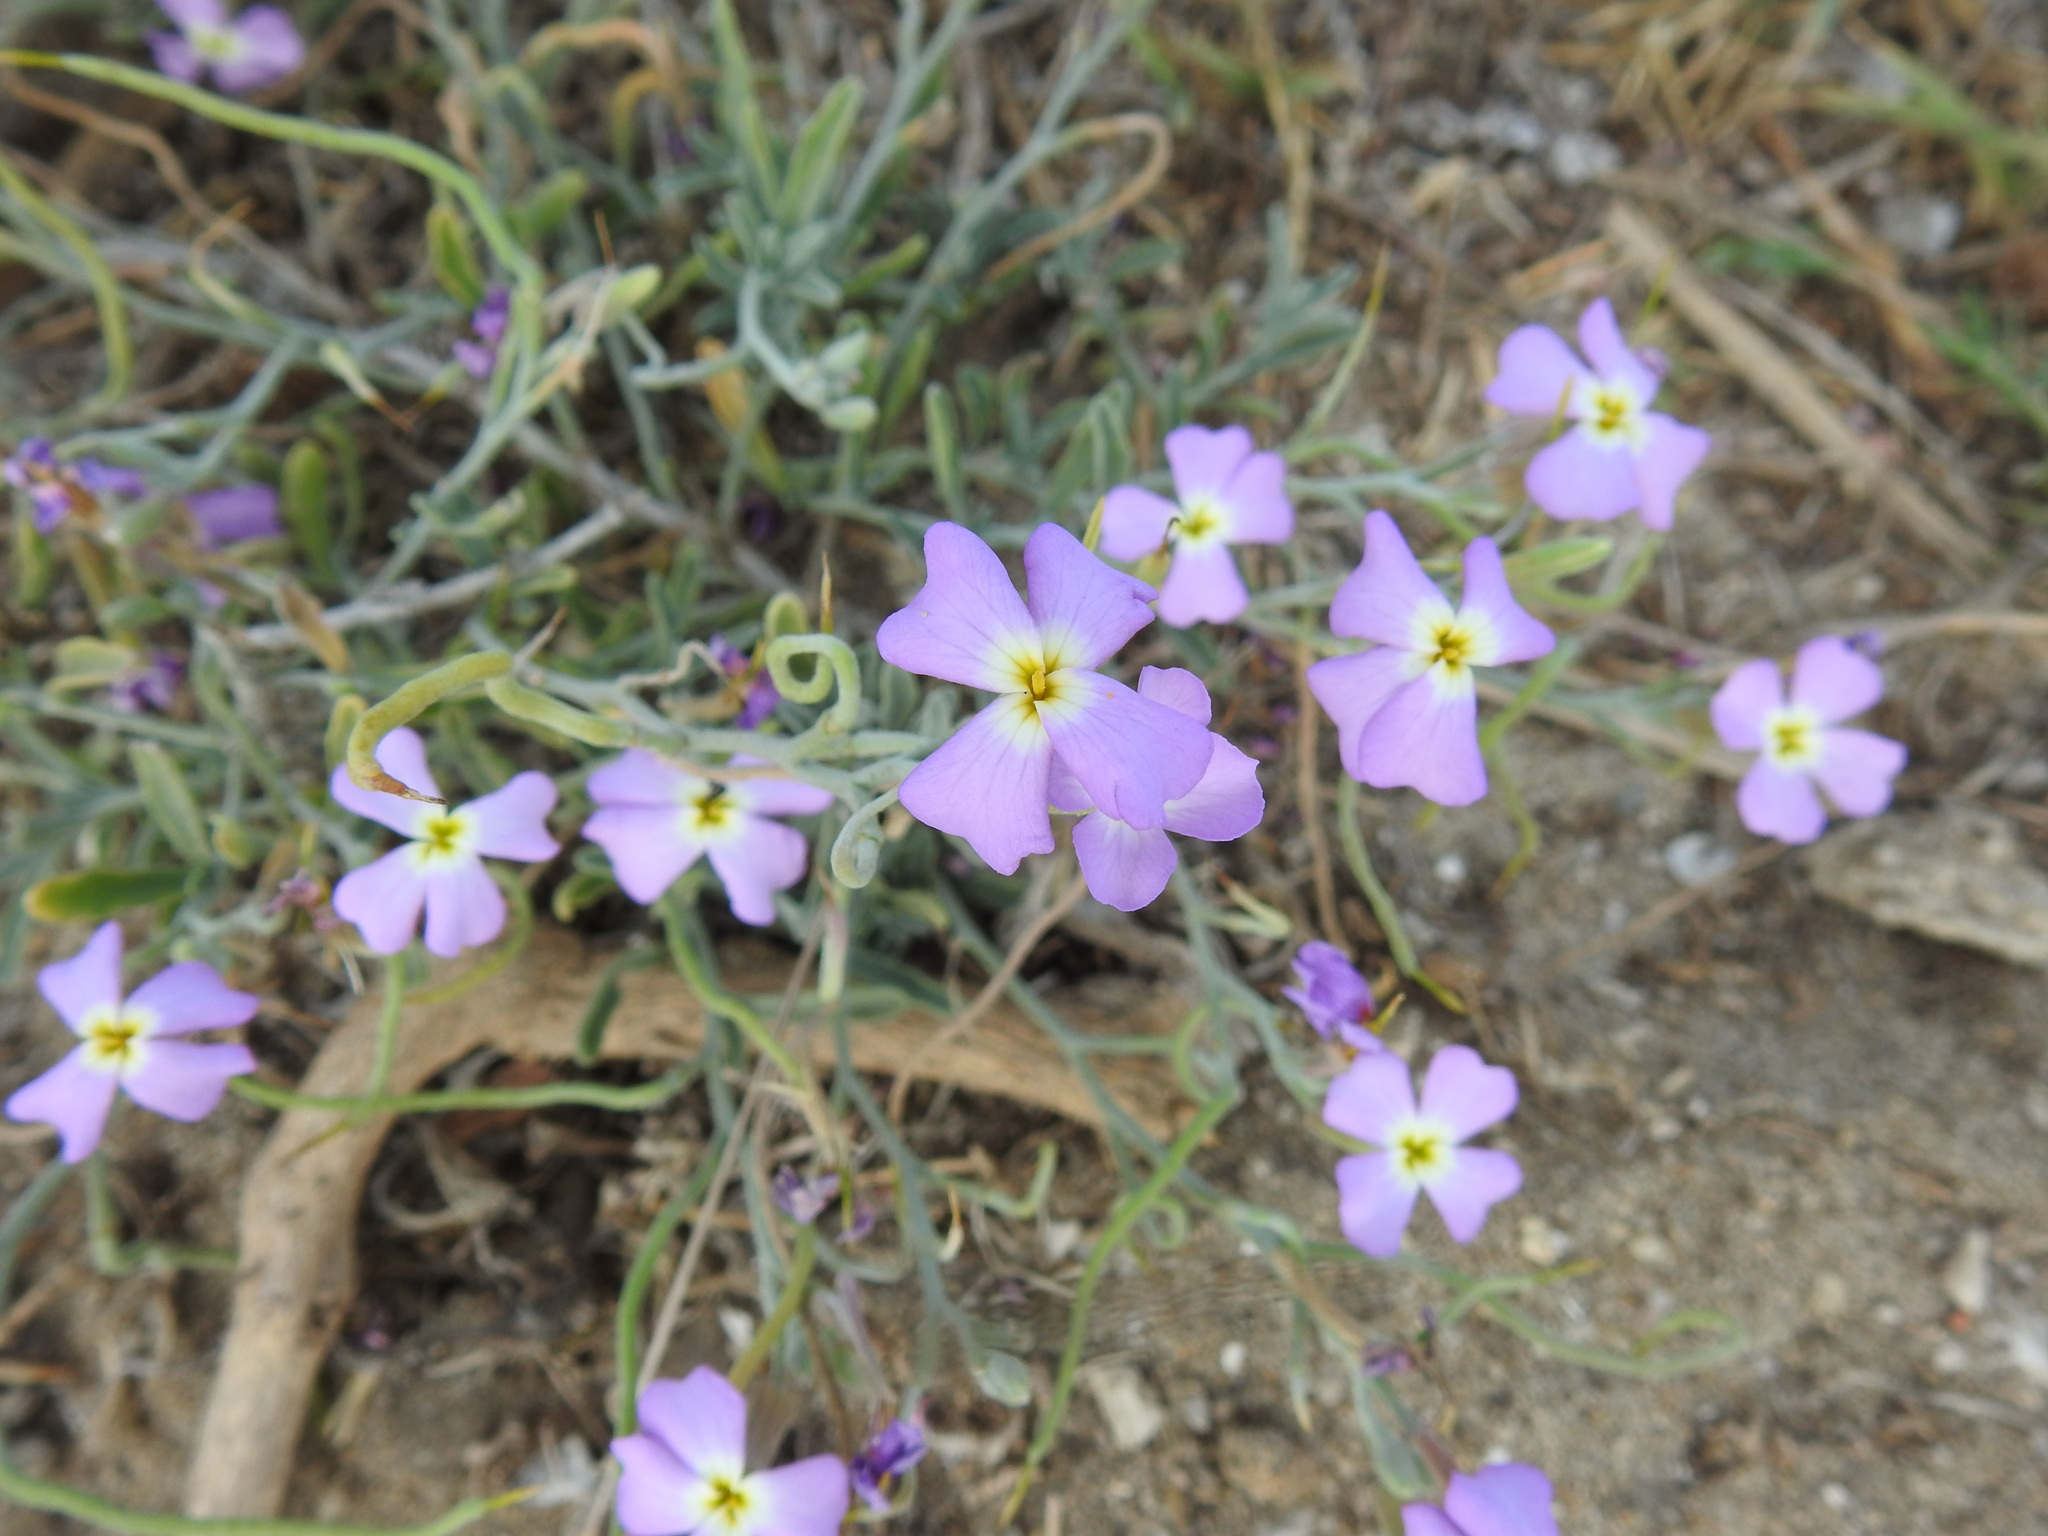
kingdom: Plantae
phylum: Tracheophyta
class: Magnoliopsida
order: Brassicales
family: Brassicaceae
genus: Marcuskochia
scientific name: Marcuskochia littorea
